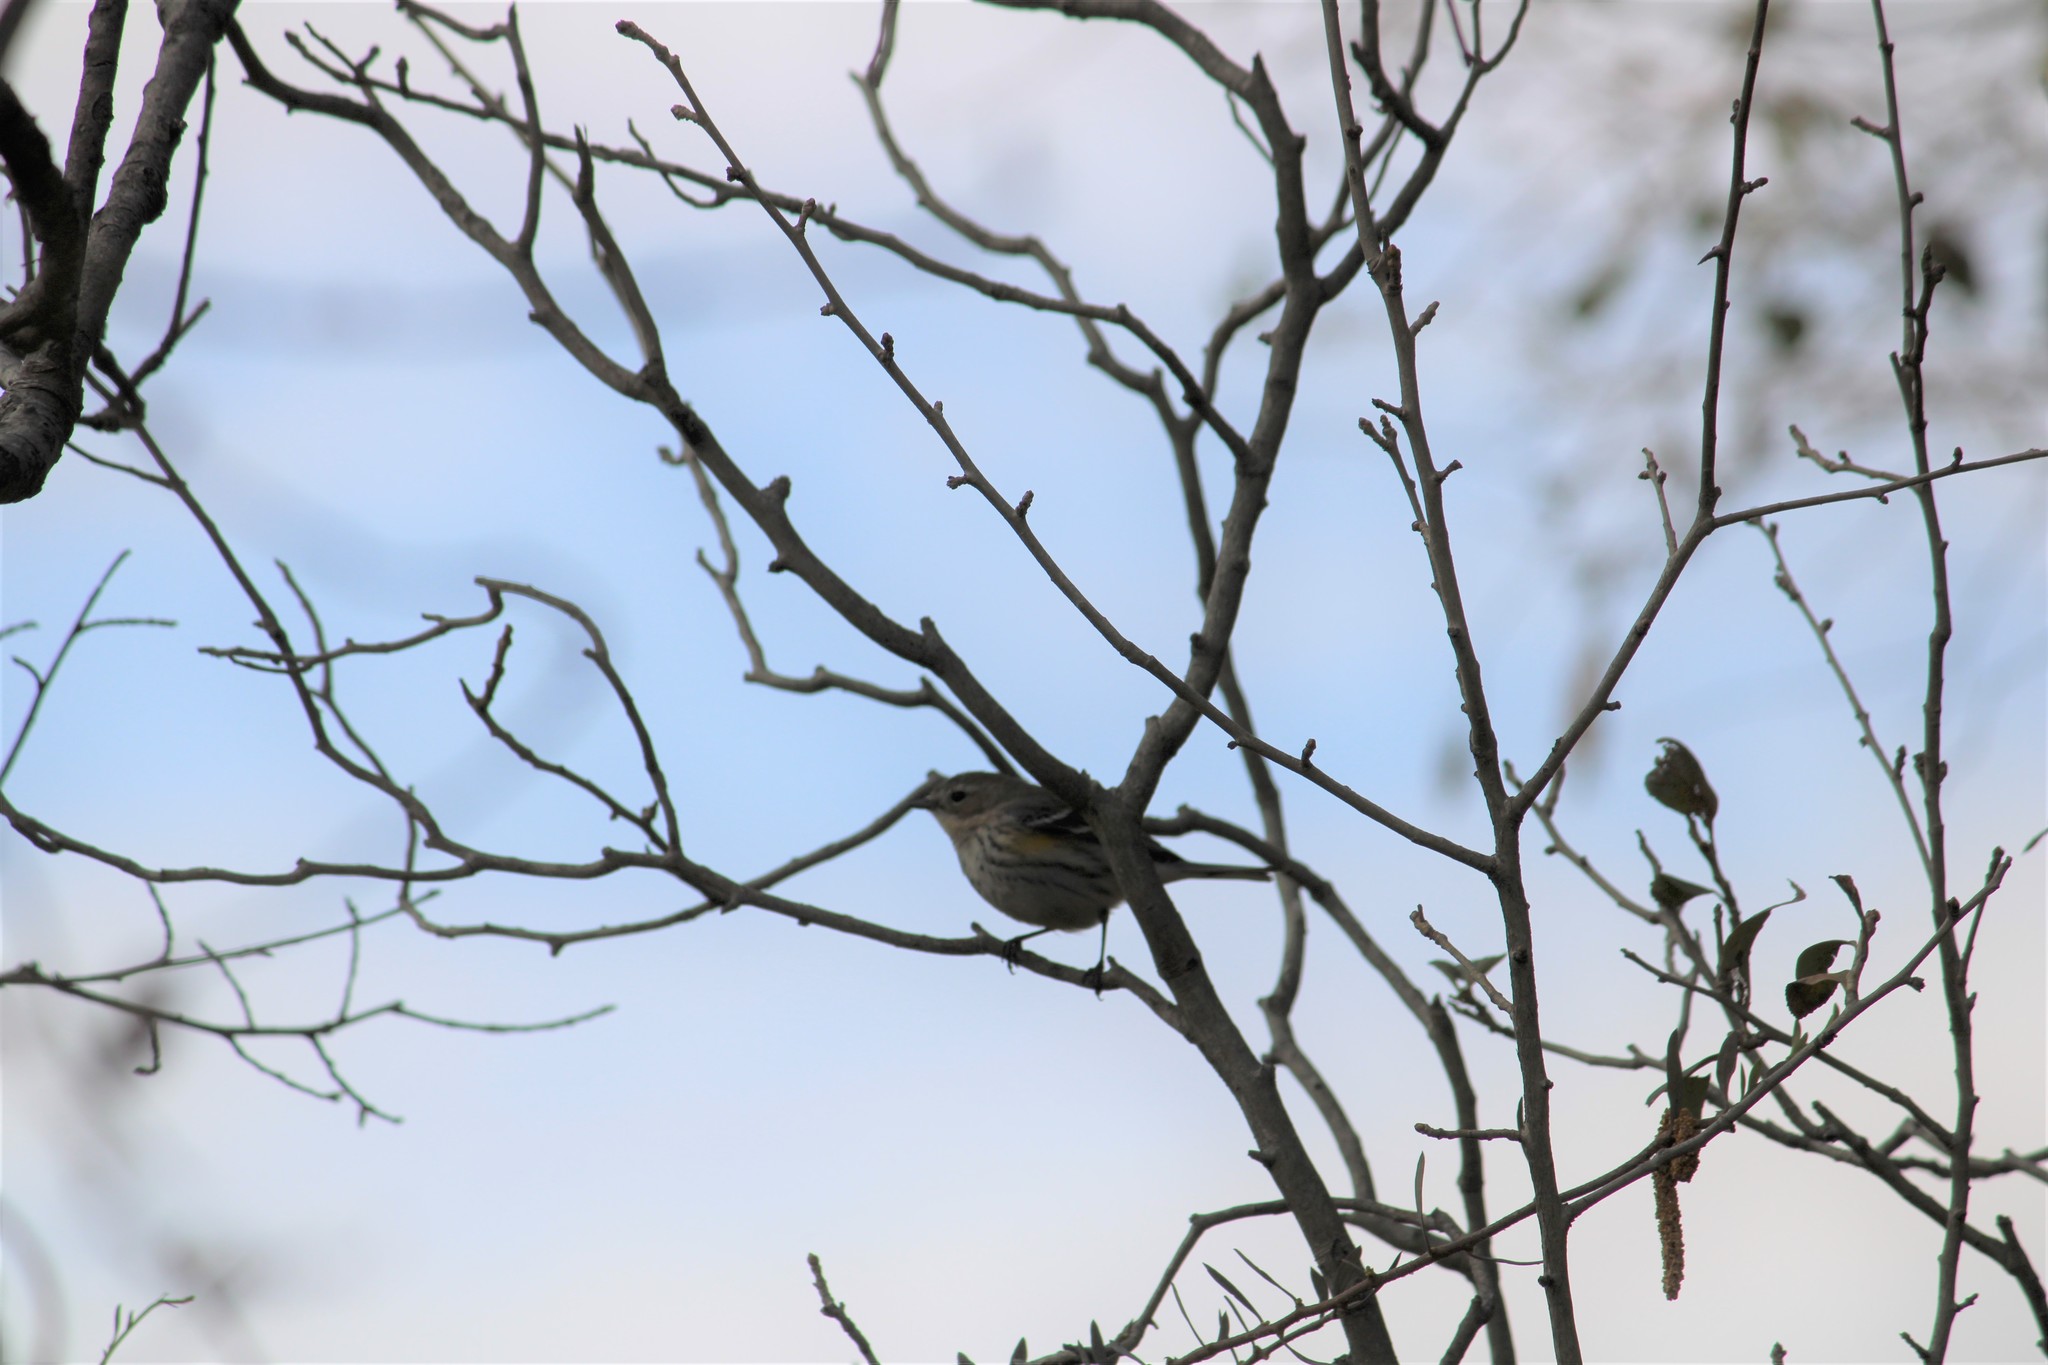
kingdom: Animalia
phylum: Chordata
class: Aves
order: Passeriformes
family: Parulidae
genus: Setophaga
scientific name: Setophaga coronata
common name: Myrtle warbler
